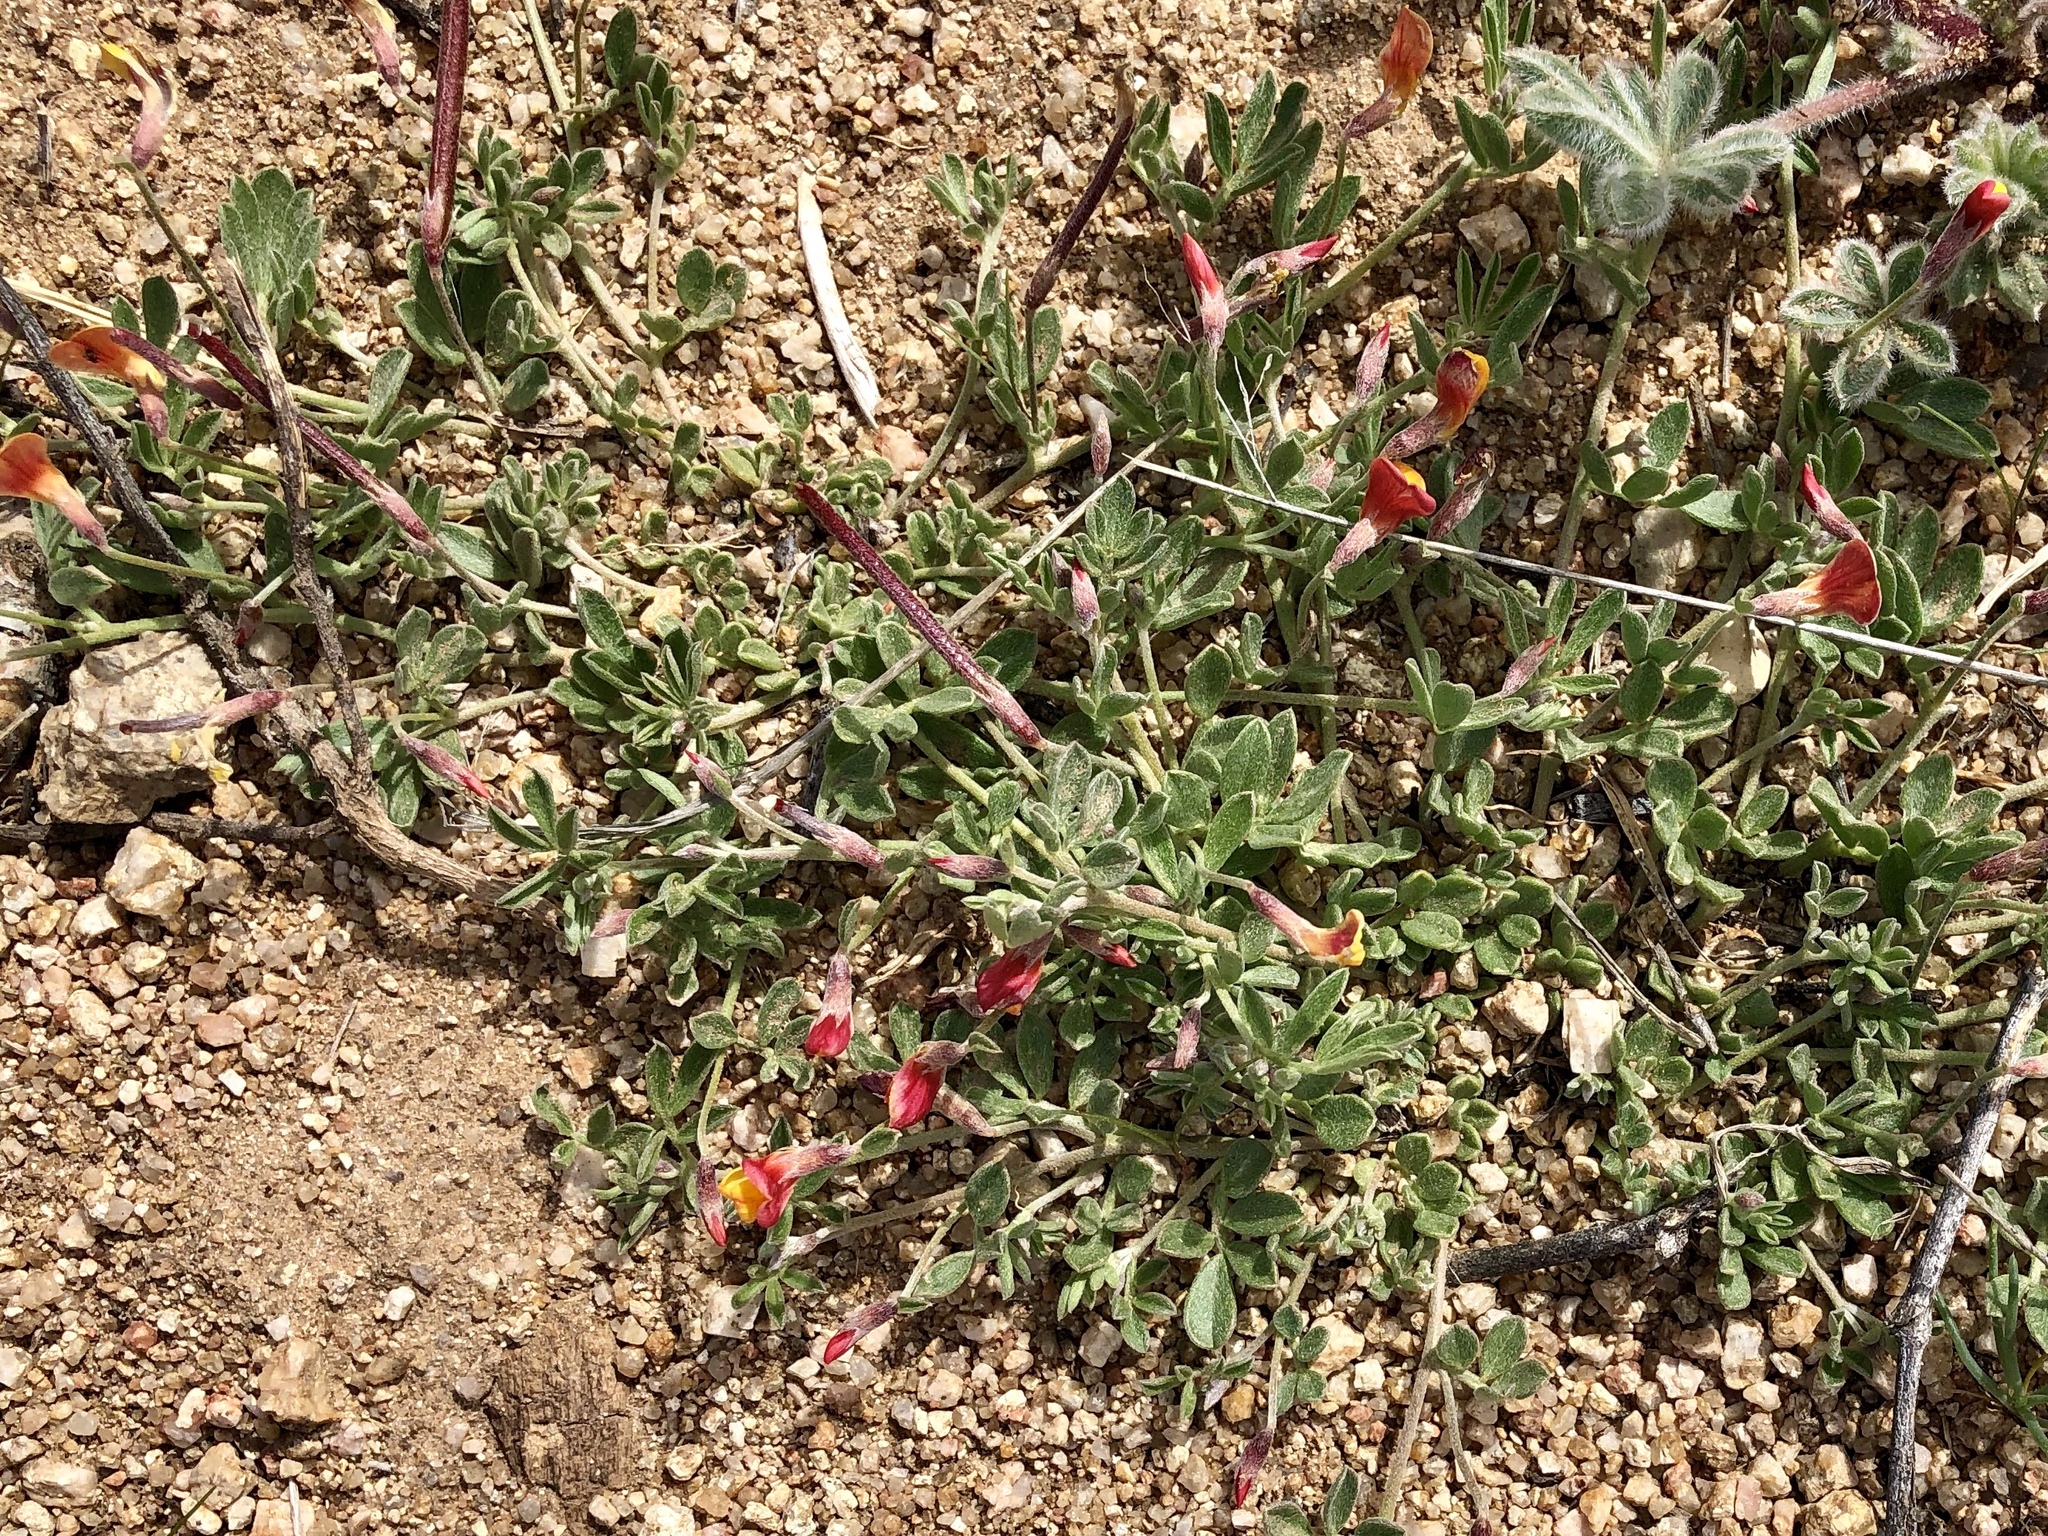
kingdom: Plantae
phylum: Tracheophyta
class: Magnoliopsida
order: Fabales
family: Fabaceae
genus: Acmispon
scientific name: Acmispon oroboides
